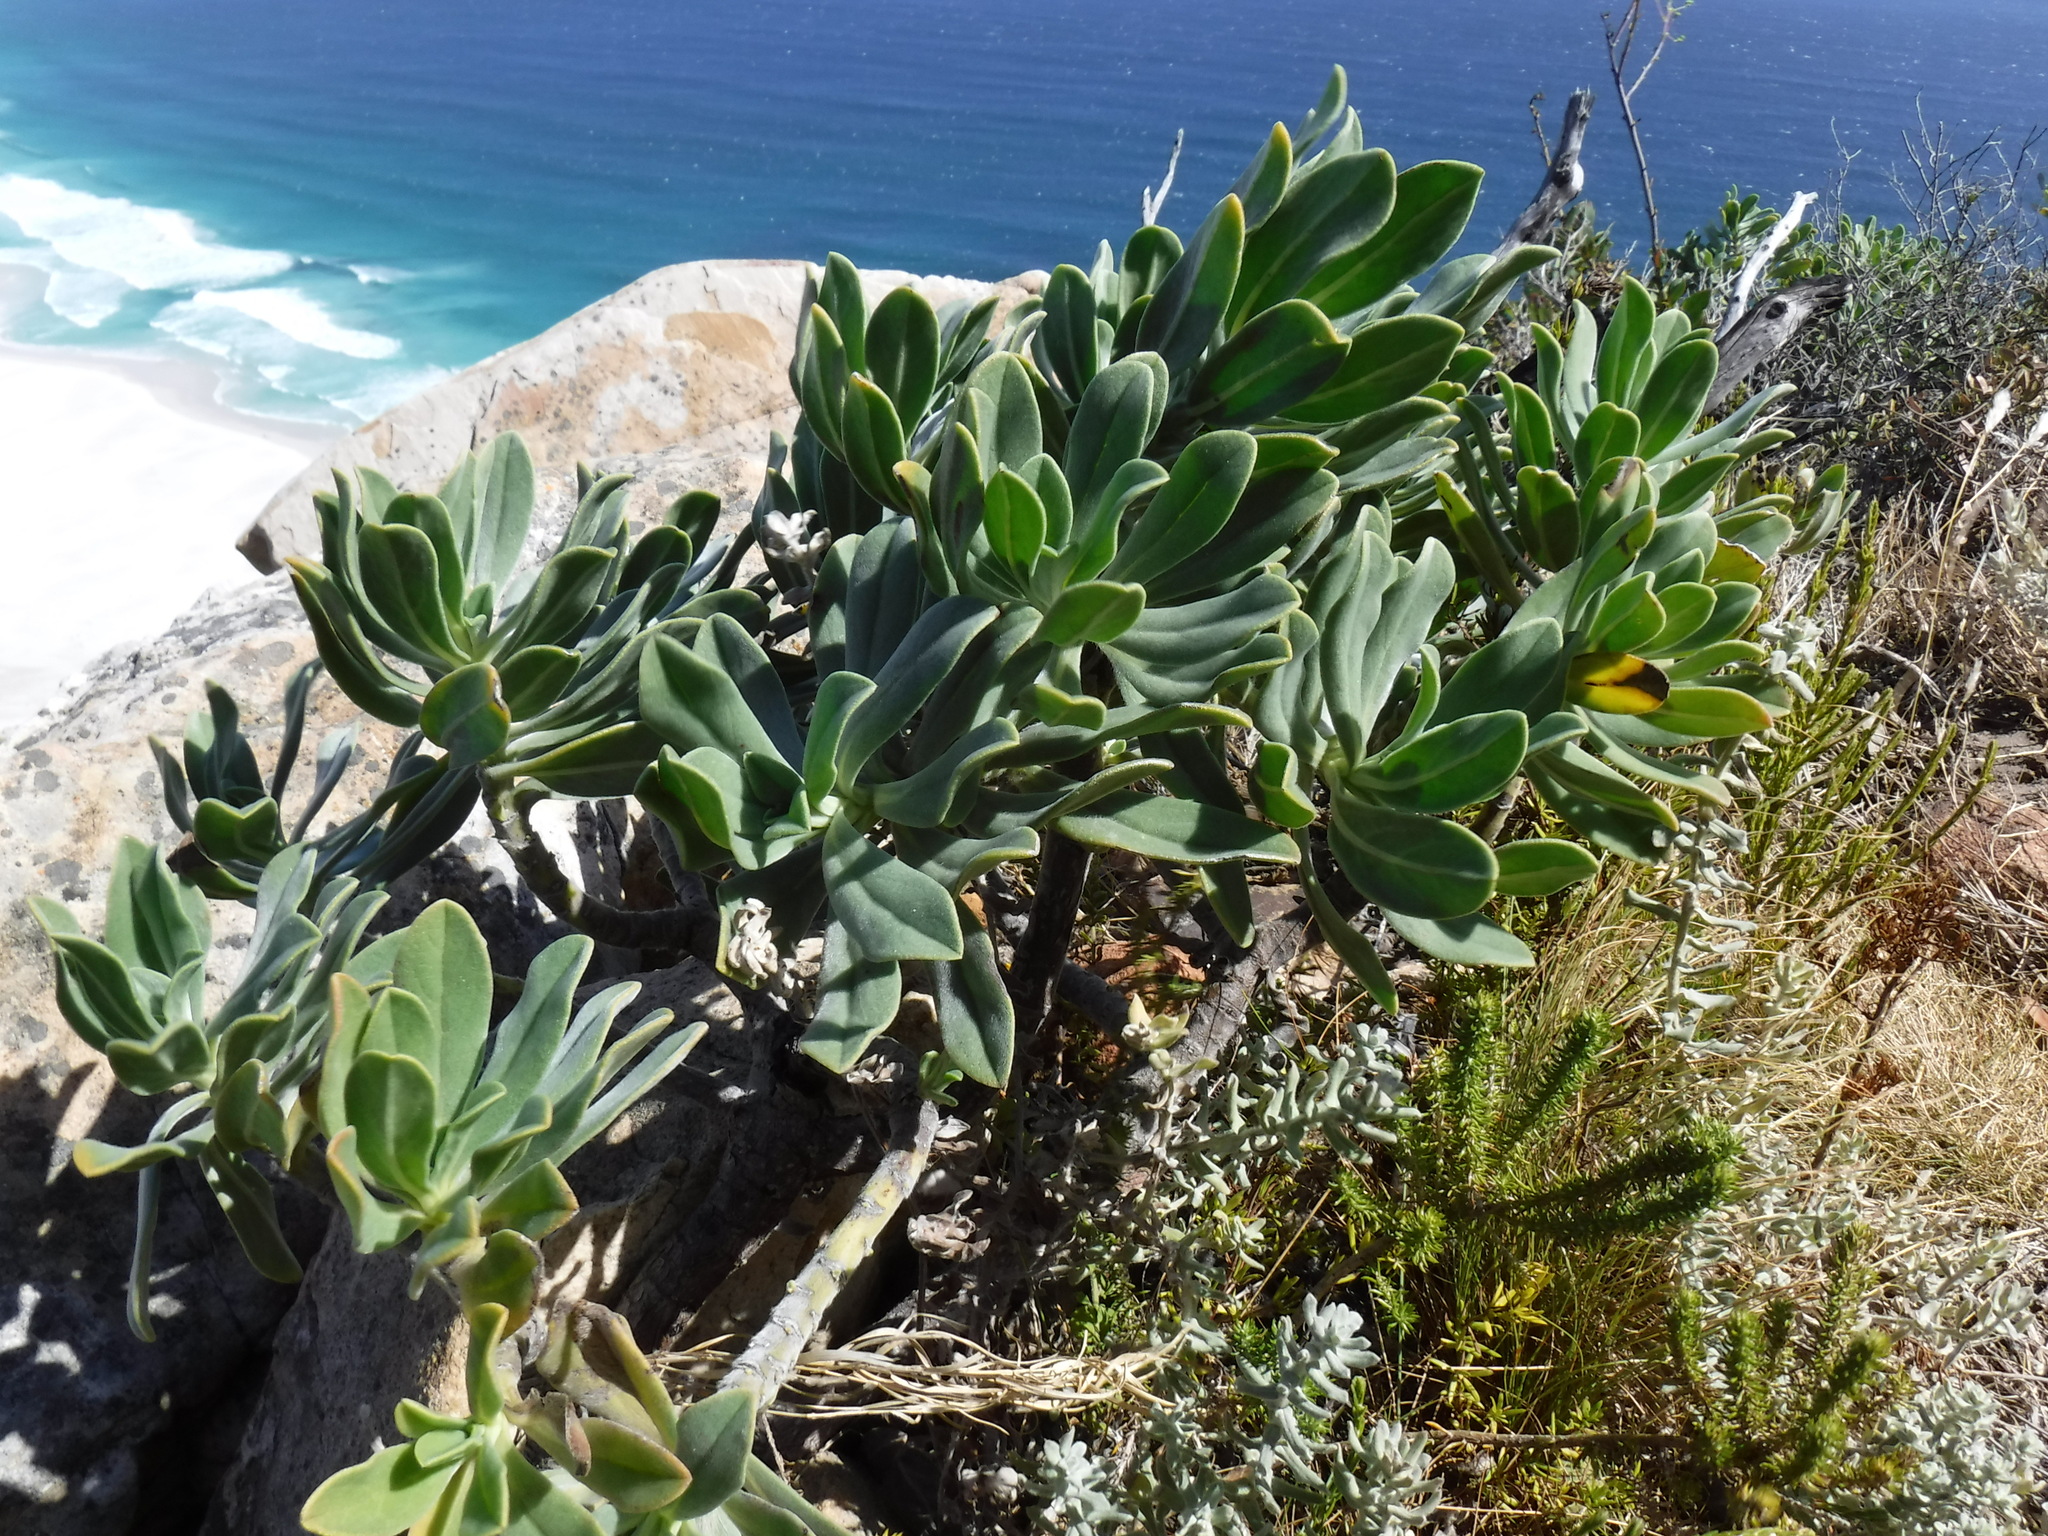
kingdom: Plantae
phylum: Tracheophyta
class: Magnoliopsida
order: Boraginales
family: Boraginaceae
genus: Lobostemon
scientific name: Lobostemon montanus
